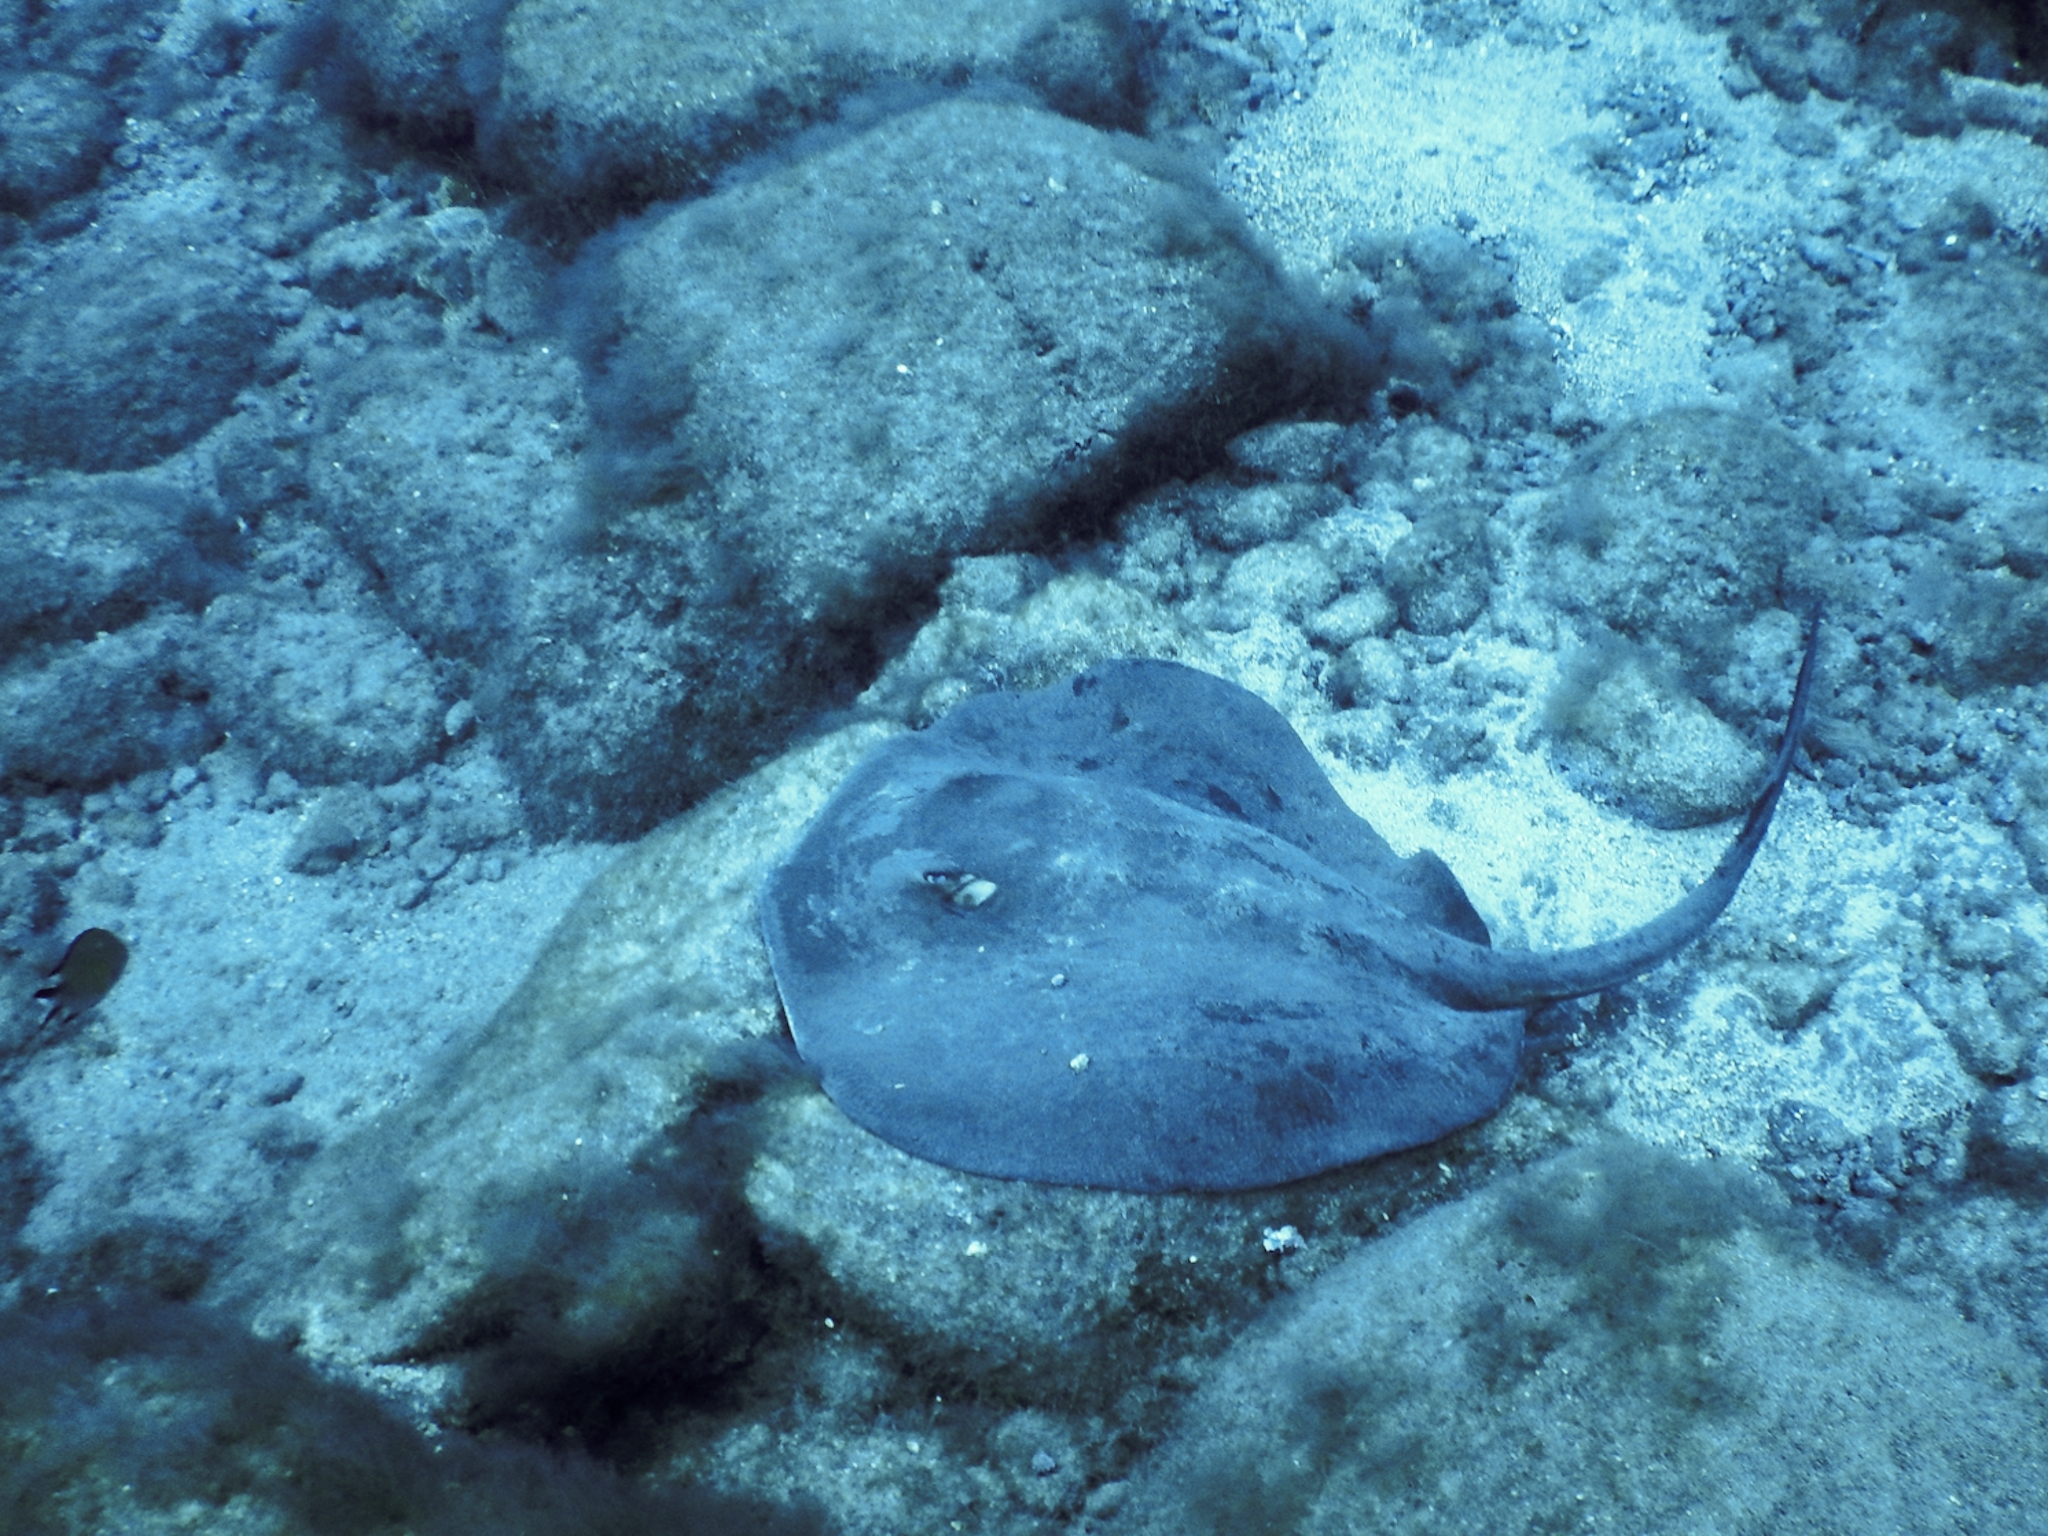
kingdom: Animalia
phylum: Chordata
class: Elasmobranchii
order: Myliobatiformes
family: Dasyatidae
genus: Taeniura
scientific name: Taeniura grabata
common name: Round stingray
